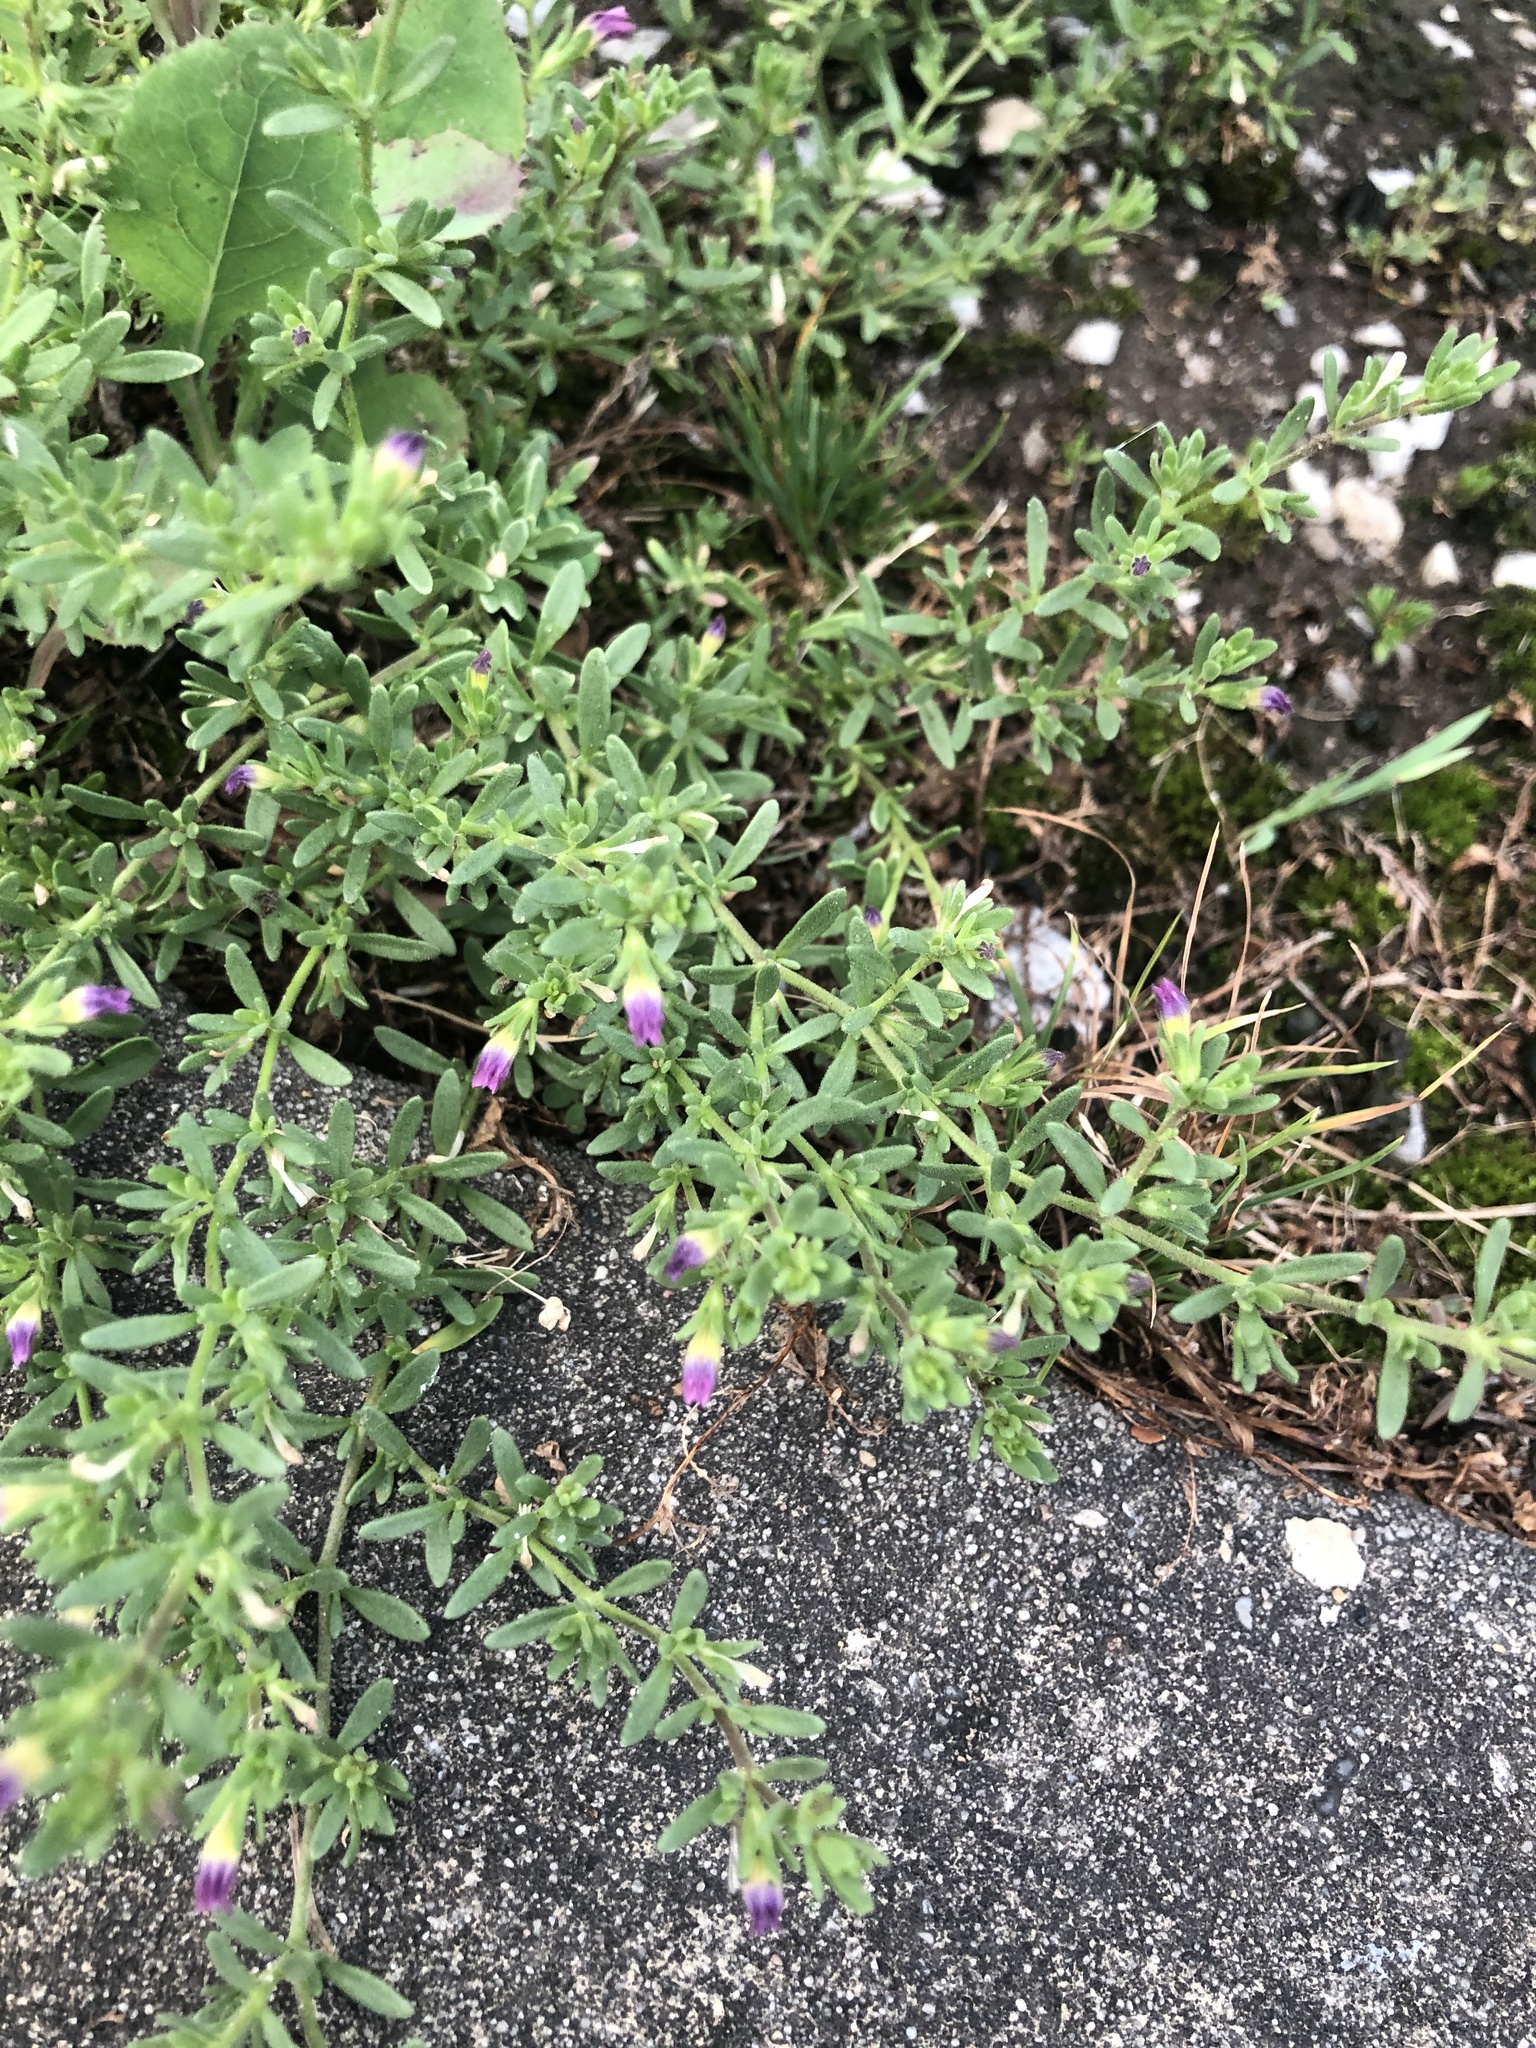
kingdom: Plantae
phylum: Tracheophyta
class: Magnoliopsida
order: Solanales
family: Solanaceae
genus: Calibrachoa
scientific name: Calibrachoa parviflora
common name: Seaside petunia
